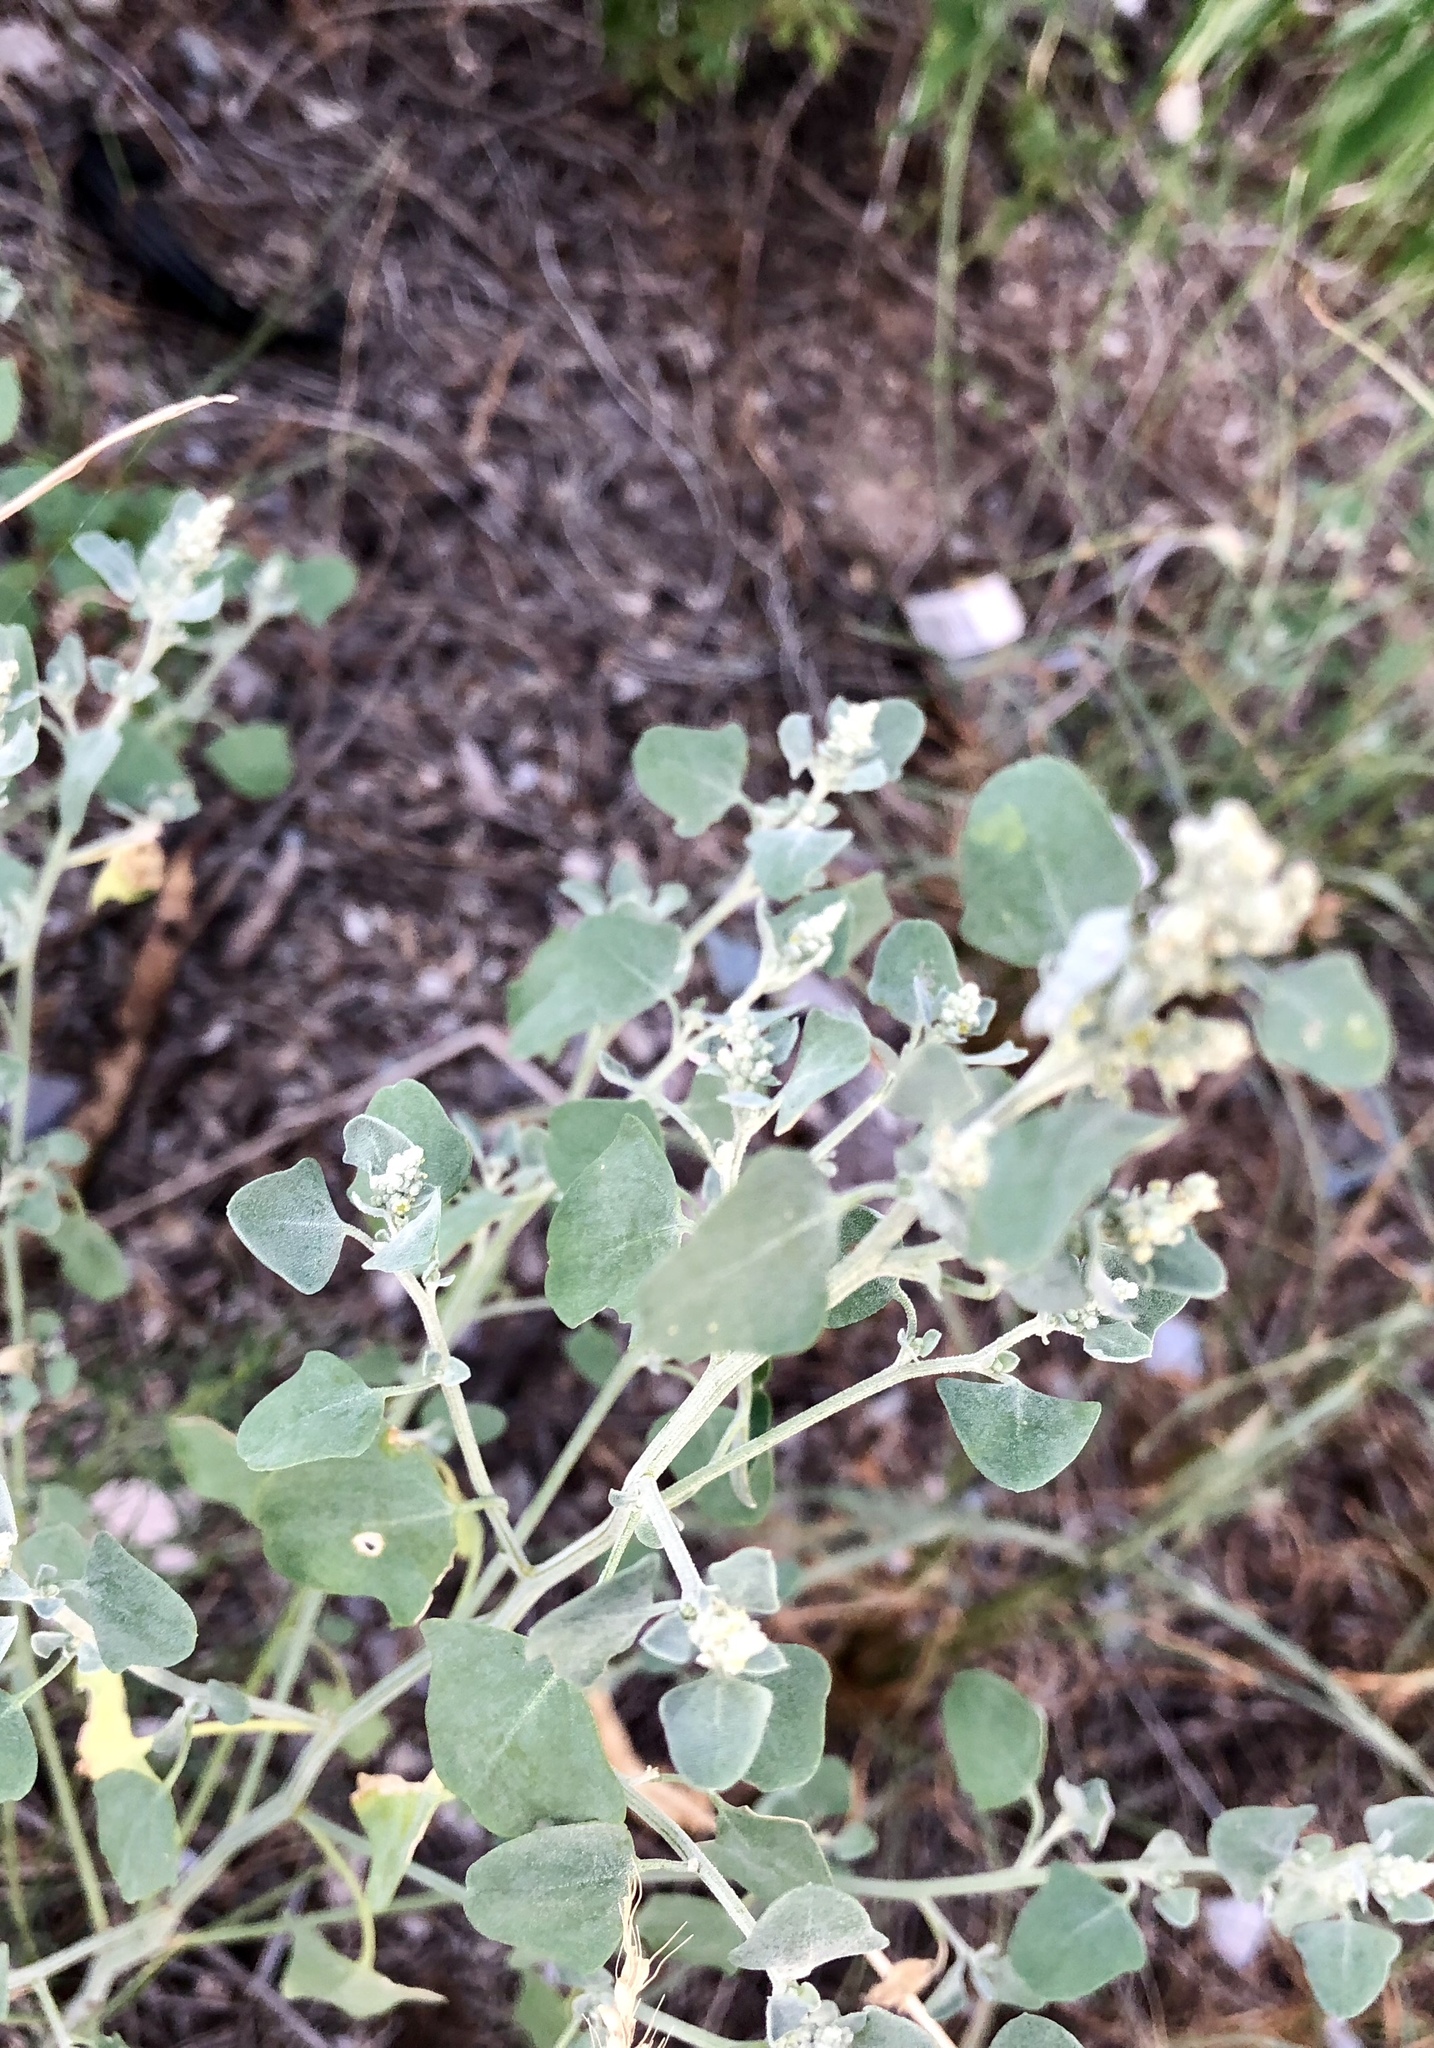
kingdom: Plantae
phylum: Tracheophyta
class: Magnoliopsida
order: Caryophyllales
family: Amaranthaceae
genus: Chenopodium
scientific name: Chenopodium album
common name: Fat-hen
